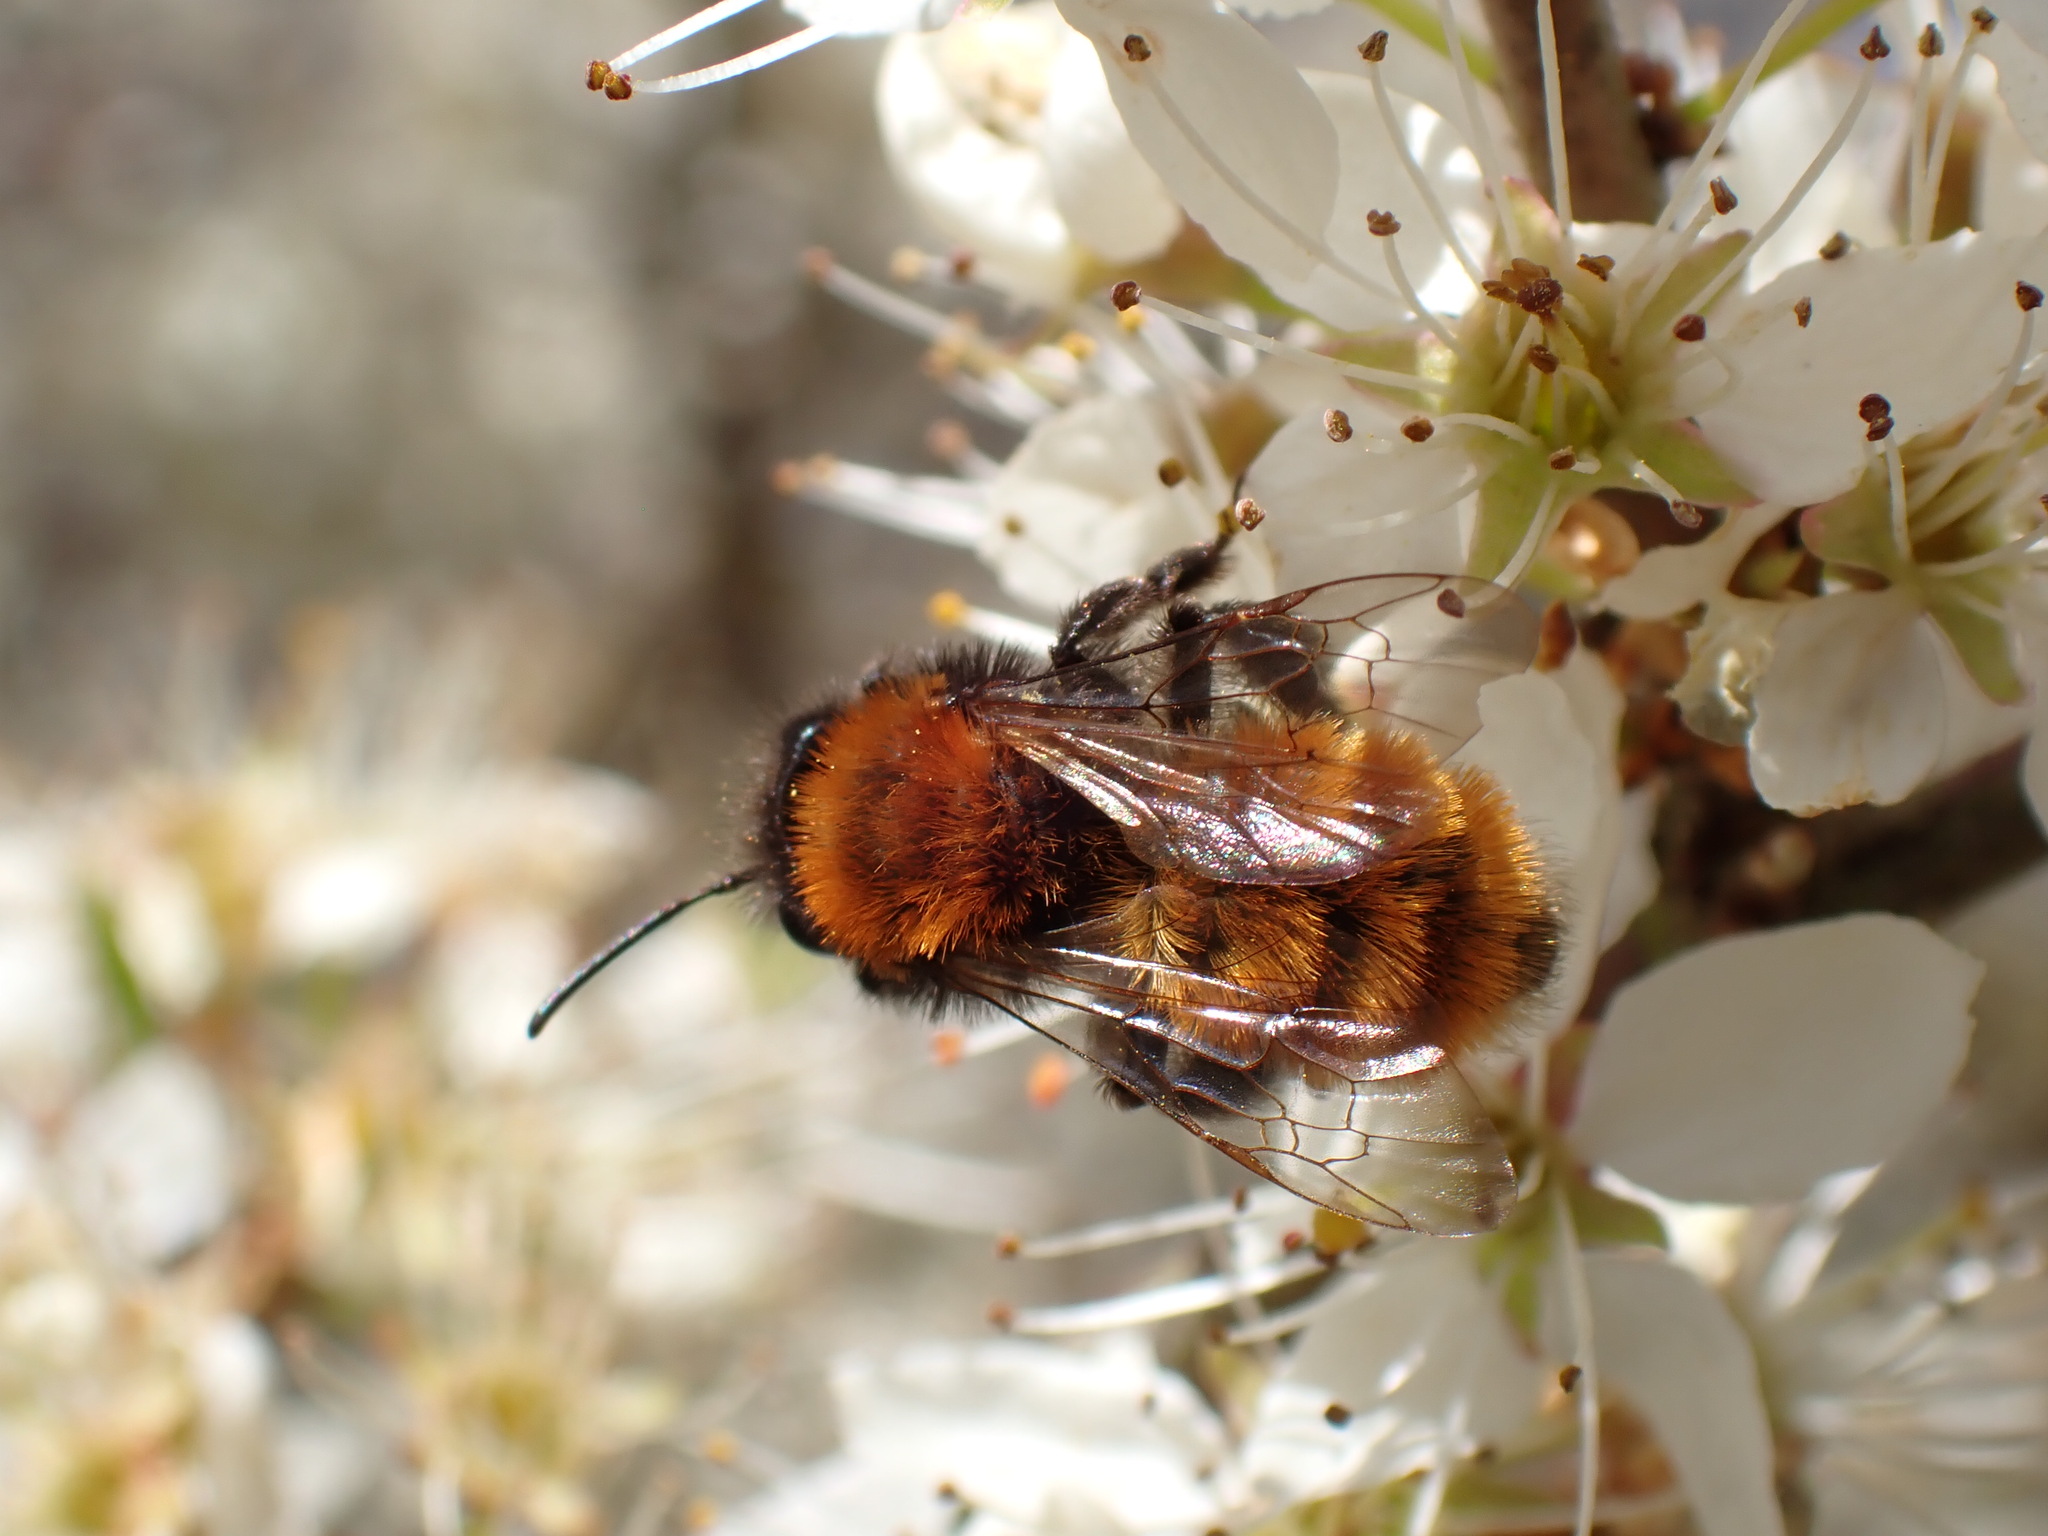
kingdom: Animalia
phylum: Arthropoda
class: Insecta
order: Hymenoptera
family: Andrenidae
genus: Andrena
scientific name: Andrena fulva
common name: Tawny mining bee
